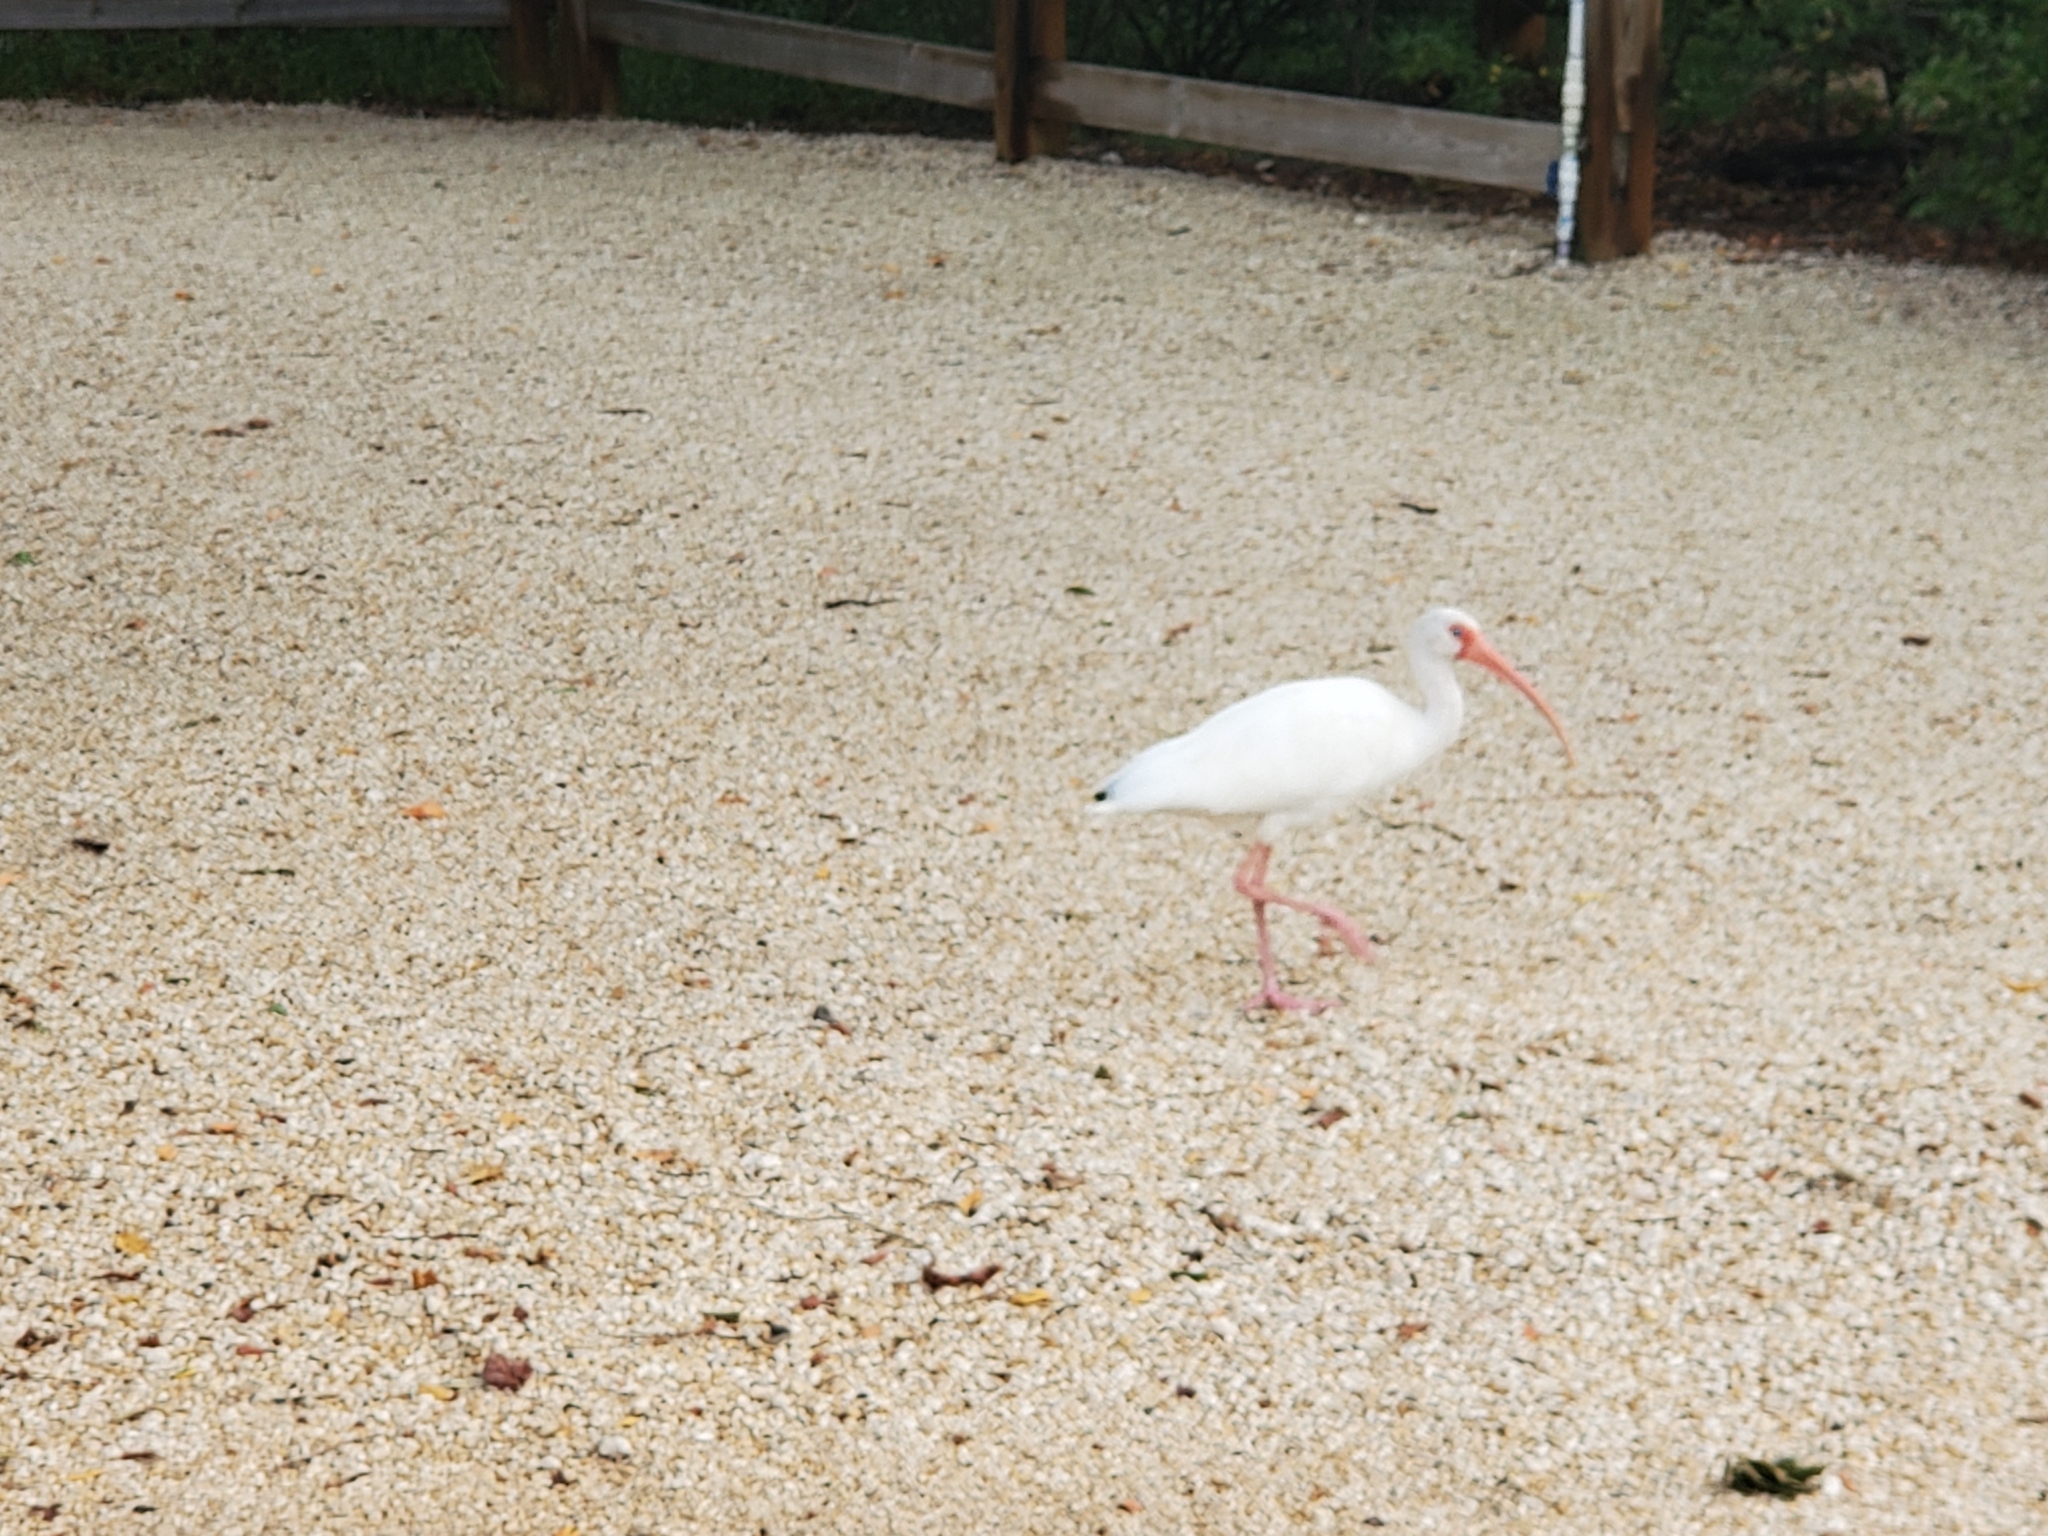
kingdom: Animalia
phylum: Chordata
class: Aves
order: Pelecaniformes
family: Threskiornithidae
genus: Eudocimus
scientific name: Eudocimus albus
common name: White ibis
